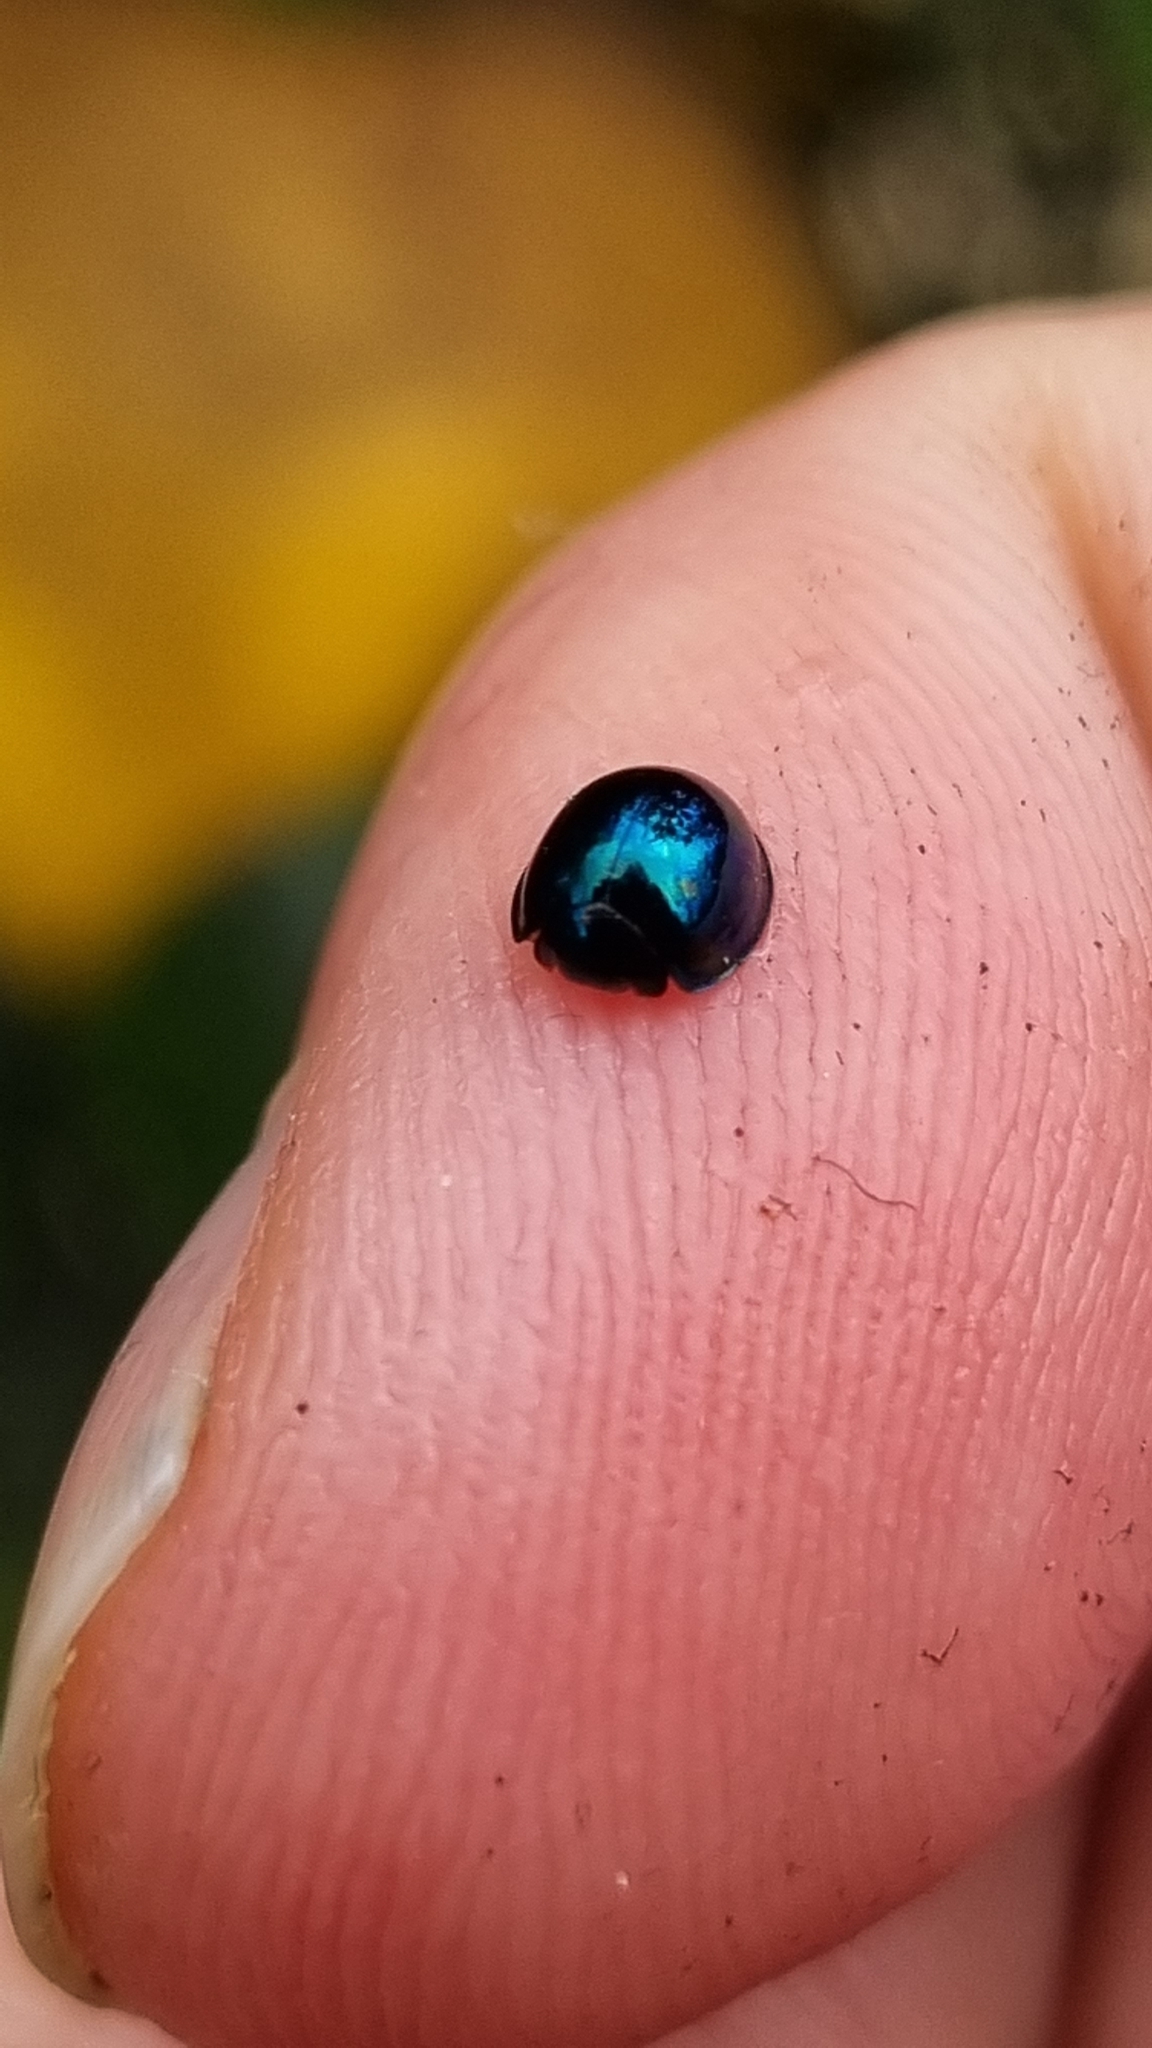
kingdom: Animalia
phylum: Arthropoda
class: Insecta
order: Coleoptera
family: Coccinellidae
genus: Halmus
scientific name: Halmus chalybeus
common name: Steel blue ladybird beetle
